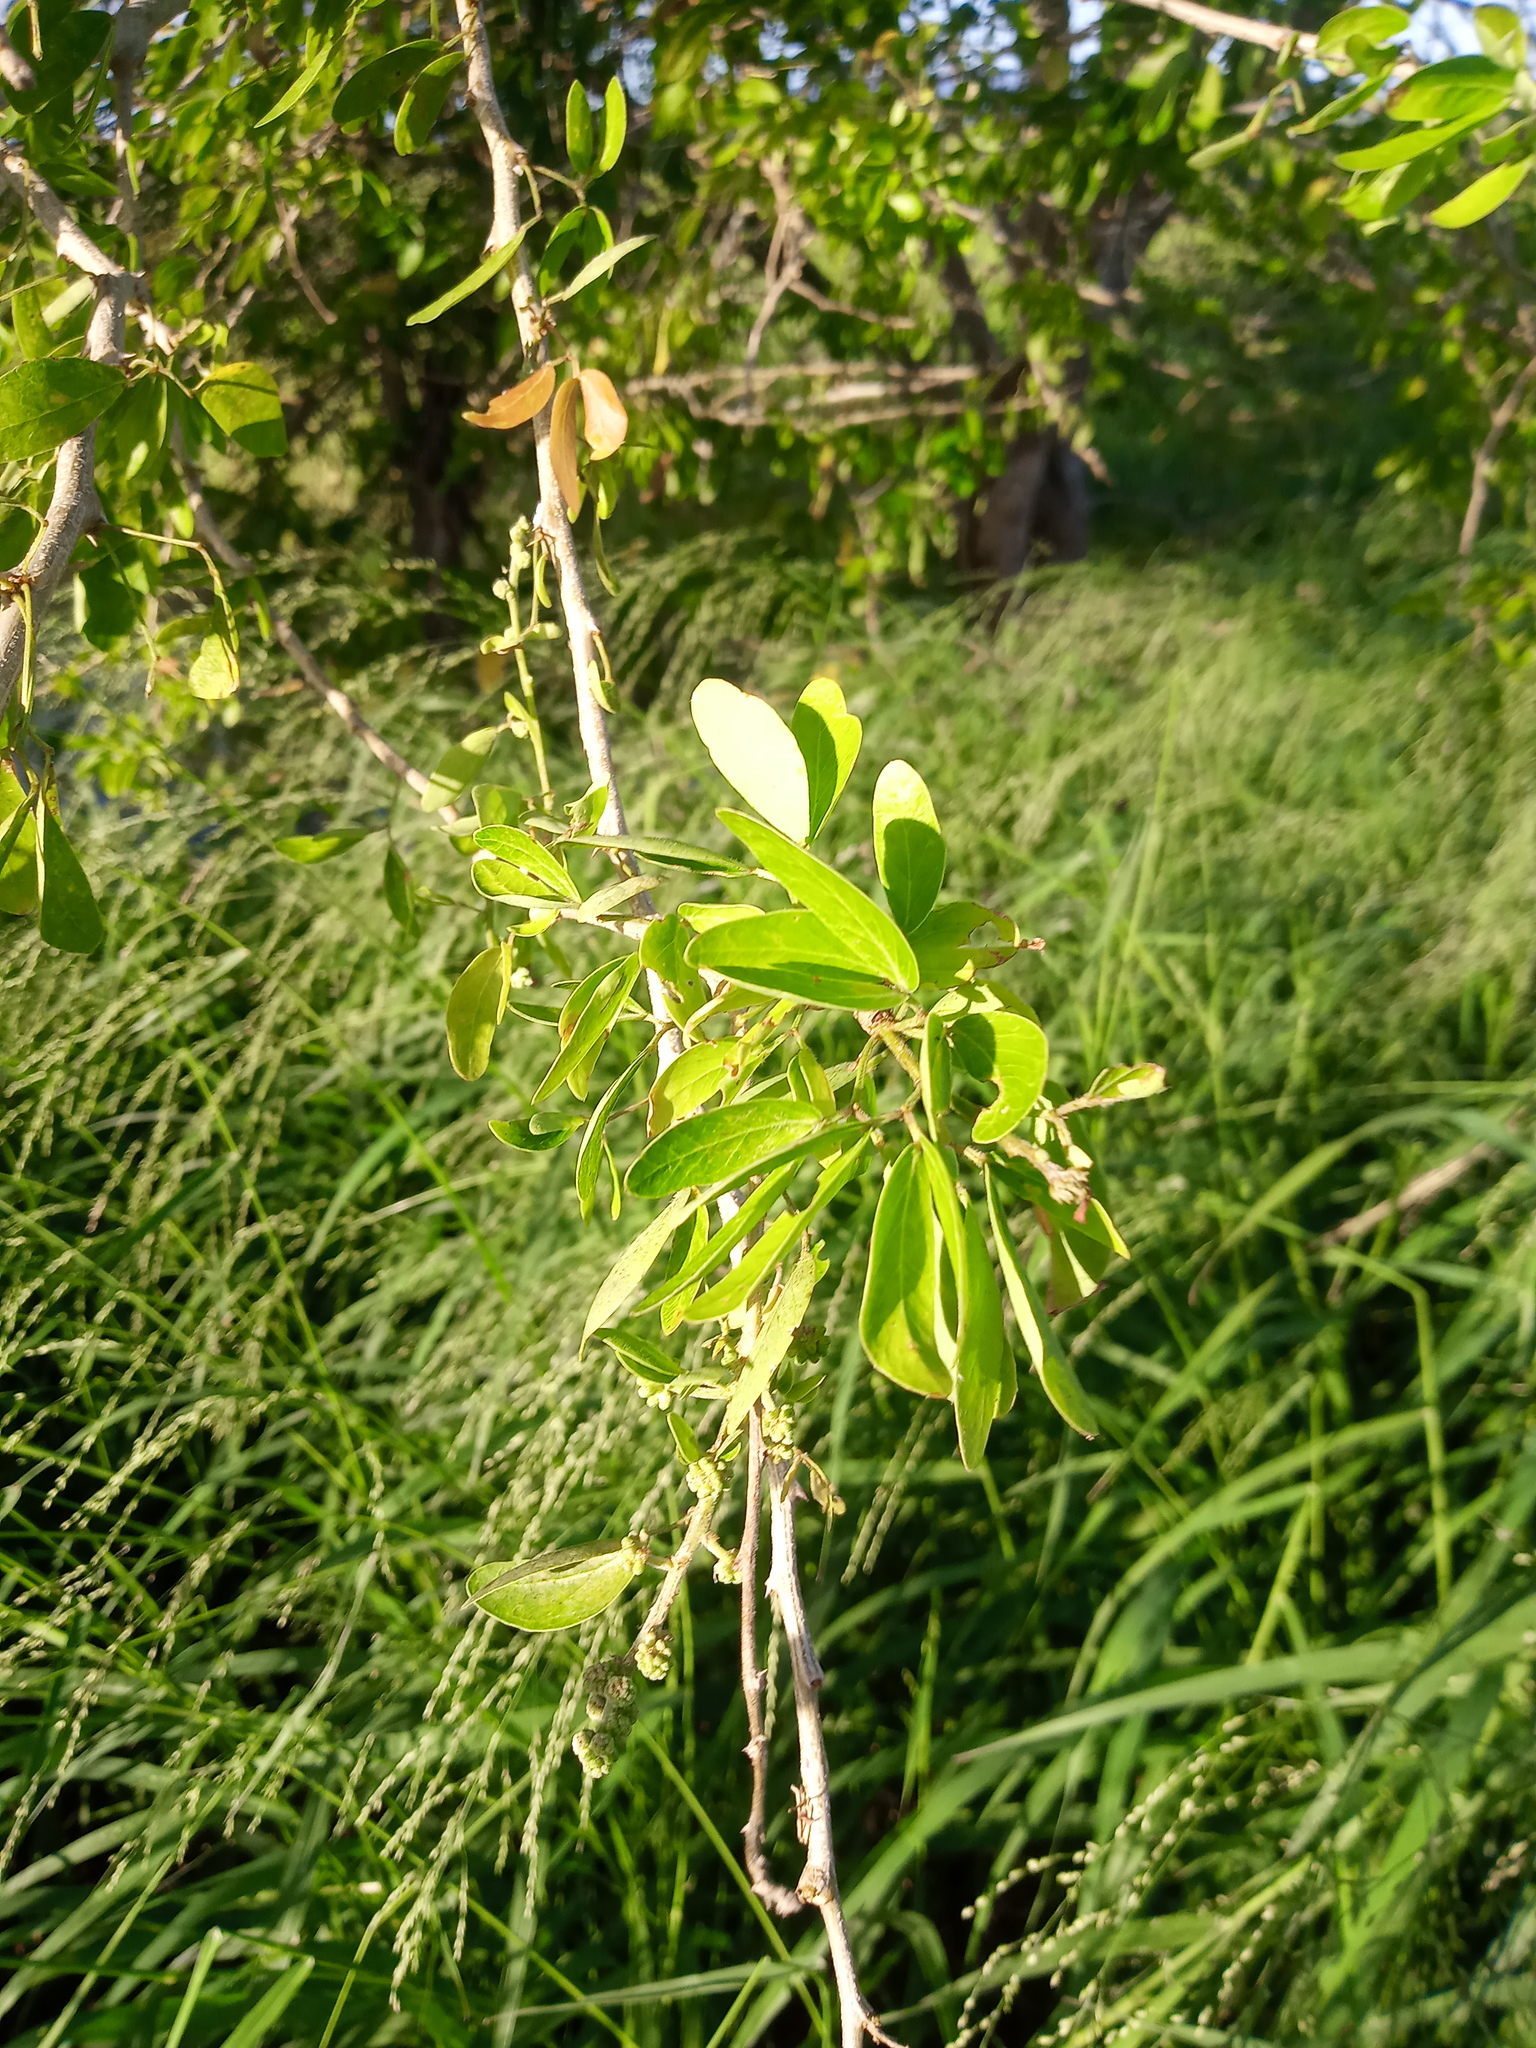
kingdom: Plantae
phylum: Tracheophyta
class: Magnoliopsida
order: Fabales
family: Fabaceae
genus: Pithecellobium
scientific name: Pithecellobium dulce
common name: Monkeypod
